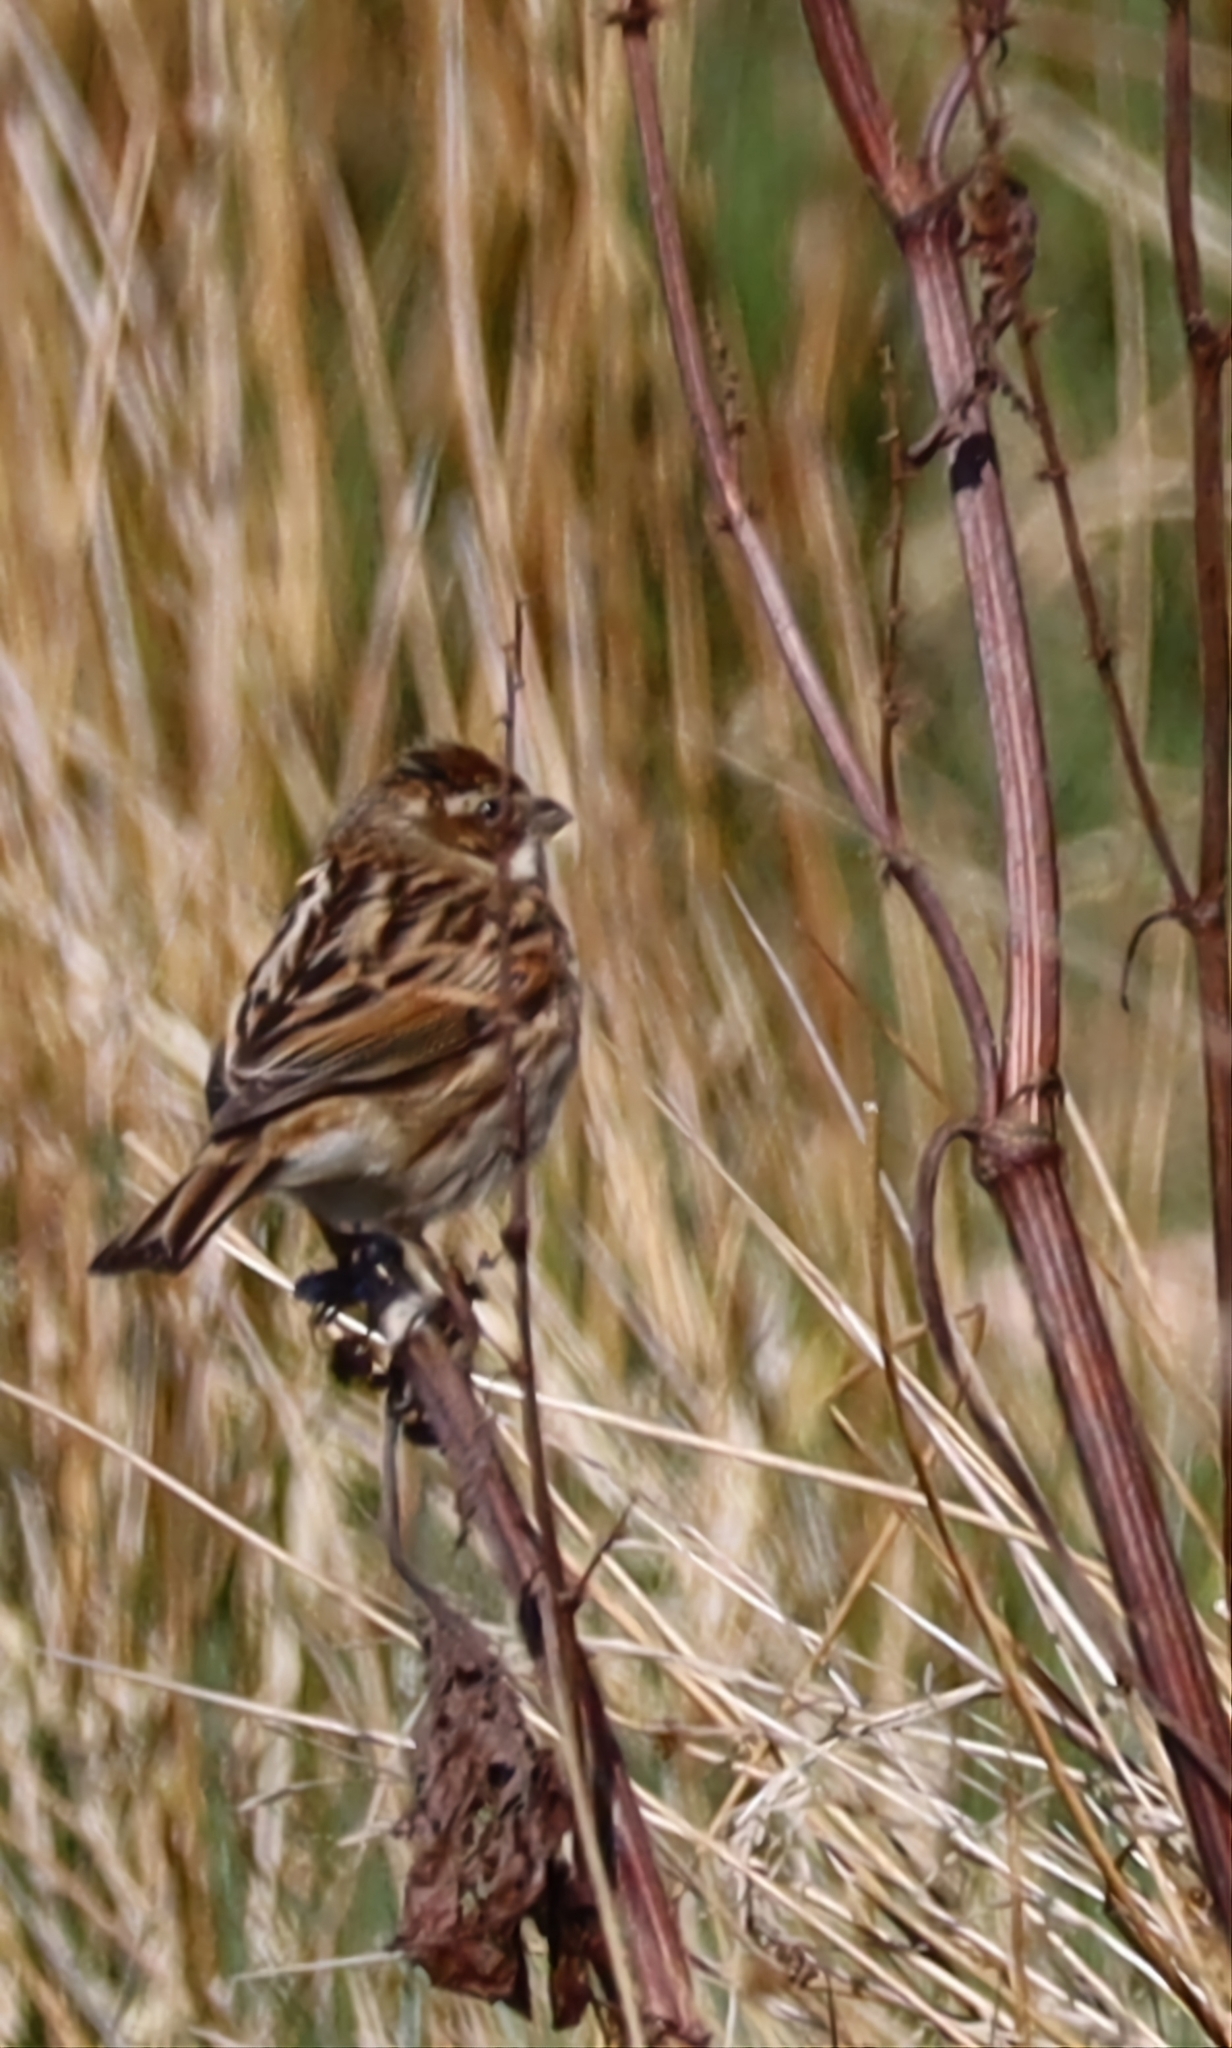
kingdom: Animalia
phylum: Chordata
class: Aves
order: Passeriformes
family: Emberizidae
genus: Emberiza
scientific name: Emberiza schoeniclus
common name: Reed bunting
